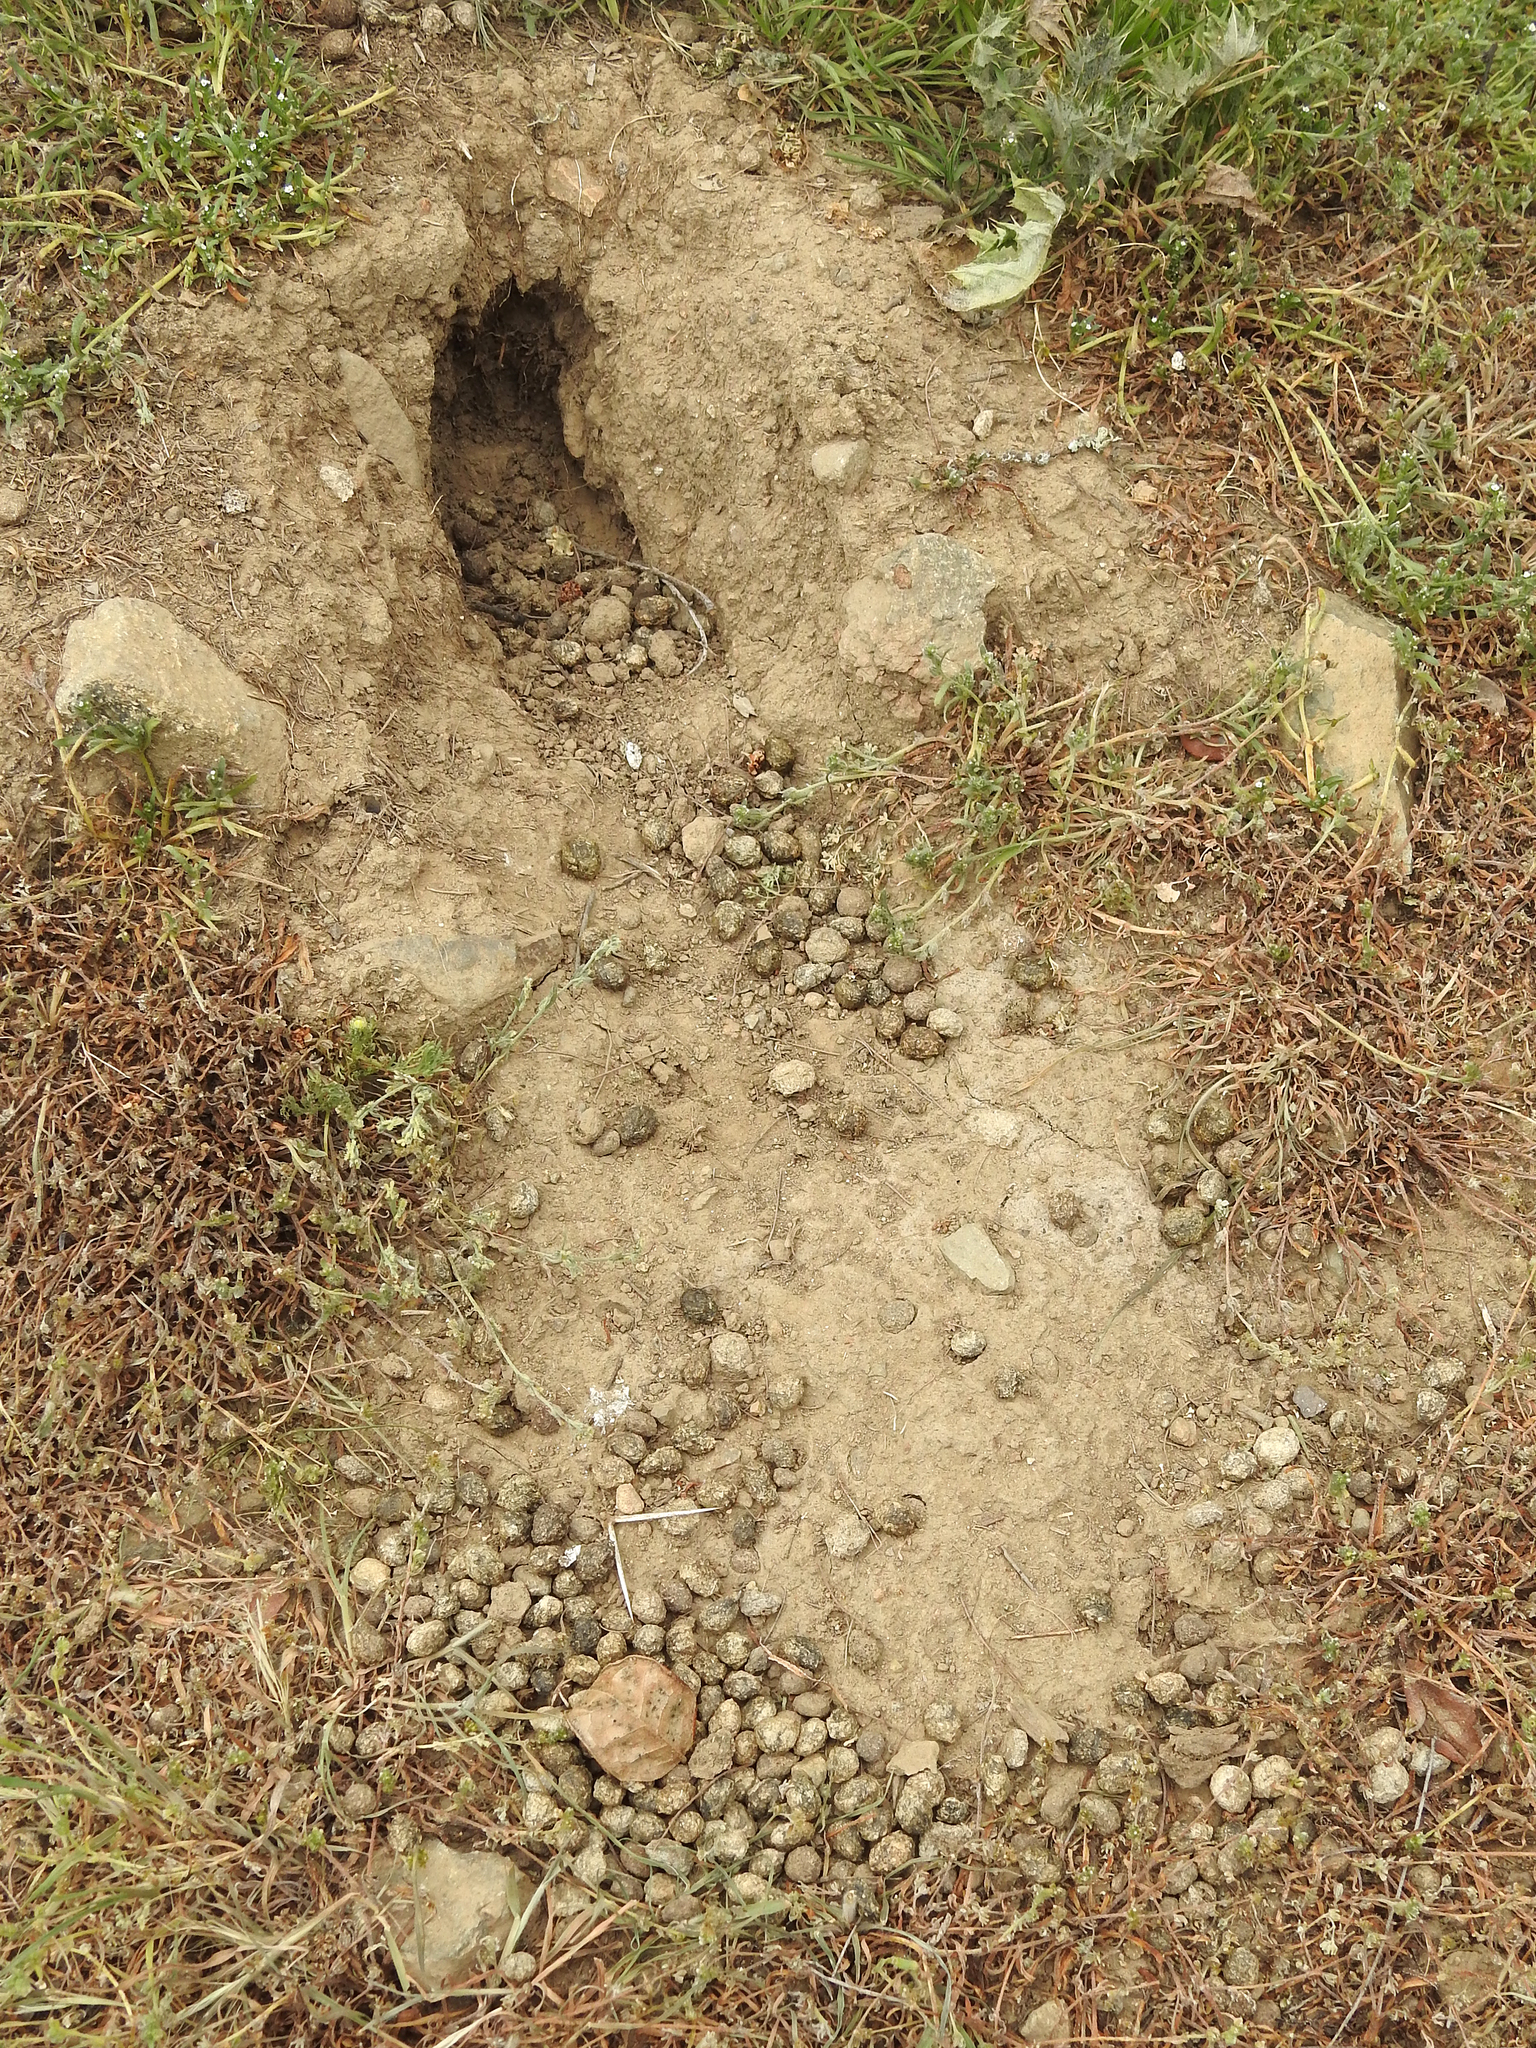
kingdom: Animalia
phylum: Chordata
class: Mammalia
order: Lagomorpha
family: Leporidae
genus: Oryctolagus
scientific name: Oryctolagus cuniculus
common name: European rabbit
